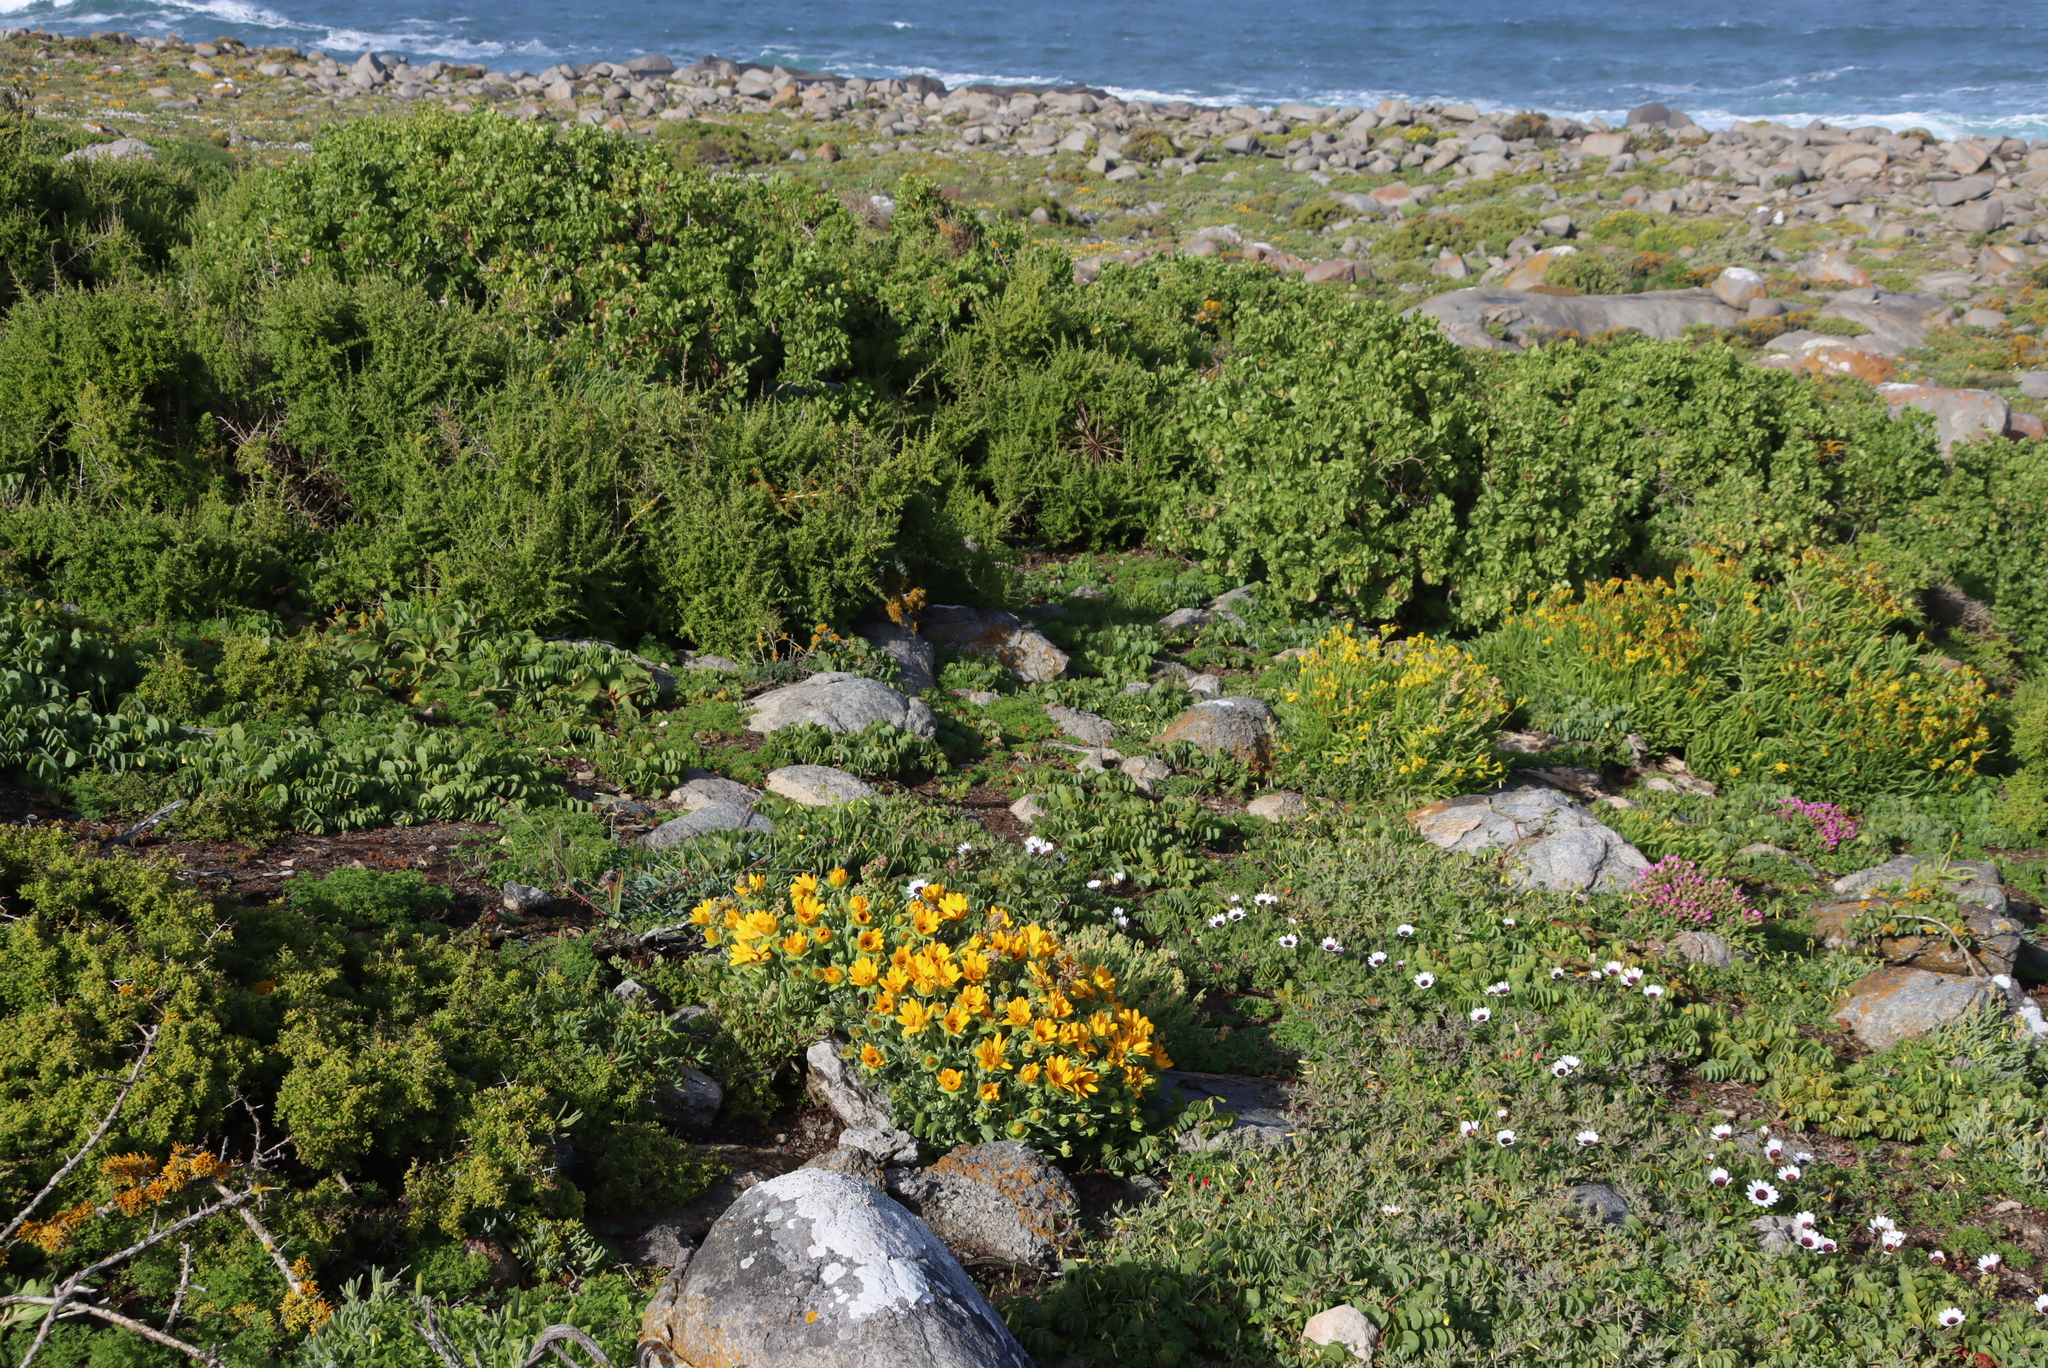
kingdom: Plantae
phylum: Tracheophyta
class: Magnoliopsida
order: Asterales
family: Asteraceae
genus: Didelta
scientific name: Didelta carnosa
